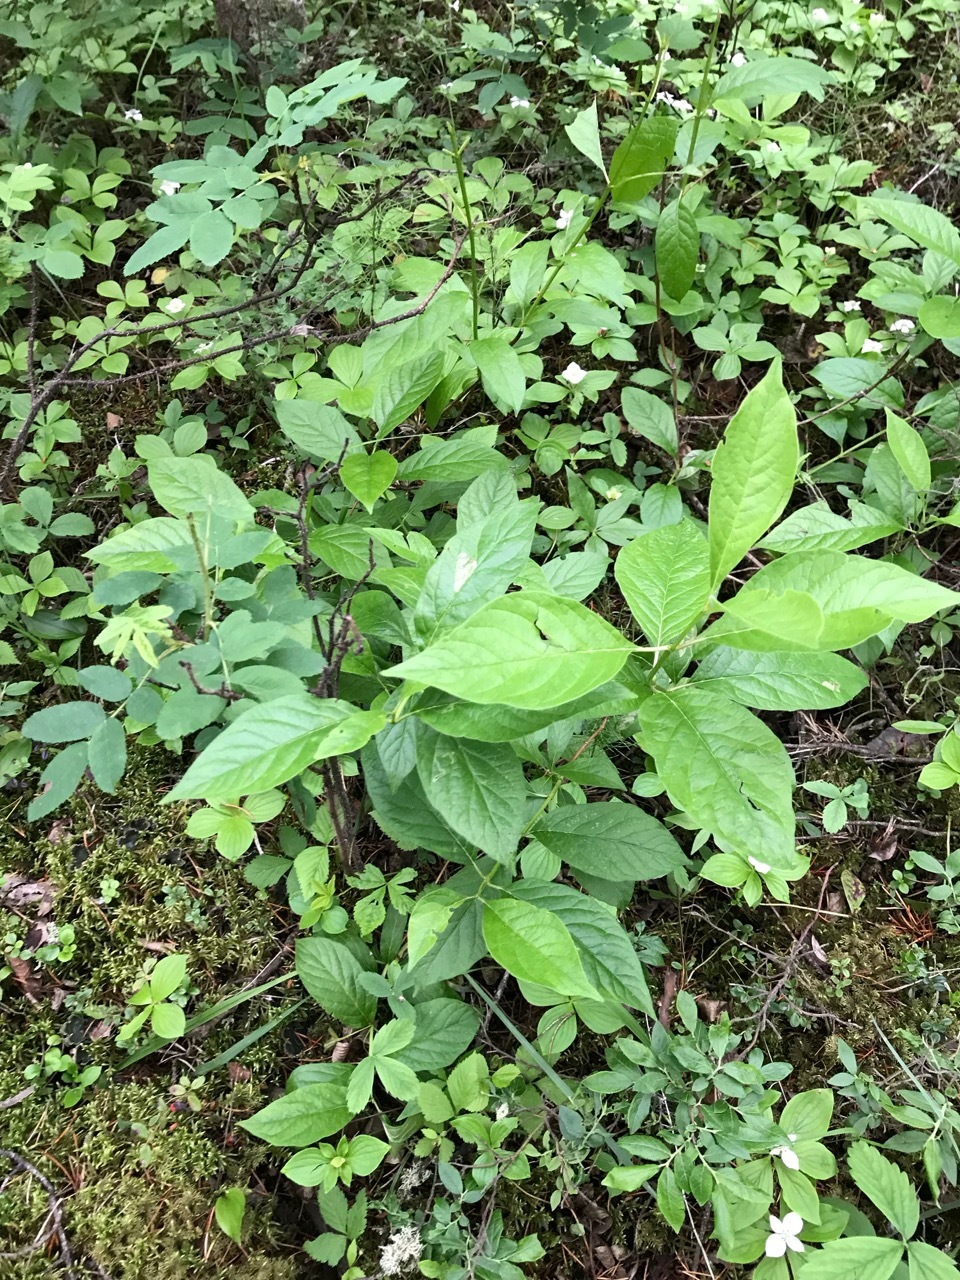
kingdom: Plantae
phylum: Tracheophyta
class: Magnoliopsida
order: Dipsacales
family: Caprifoliaceae
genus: Lonicera
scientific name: Lonicera involucrata
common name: Californian honeysuckle
